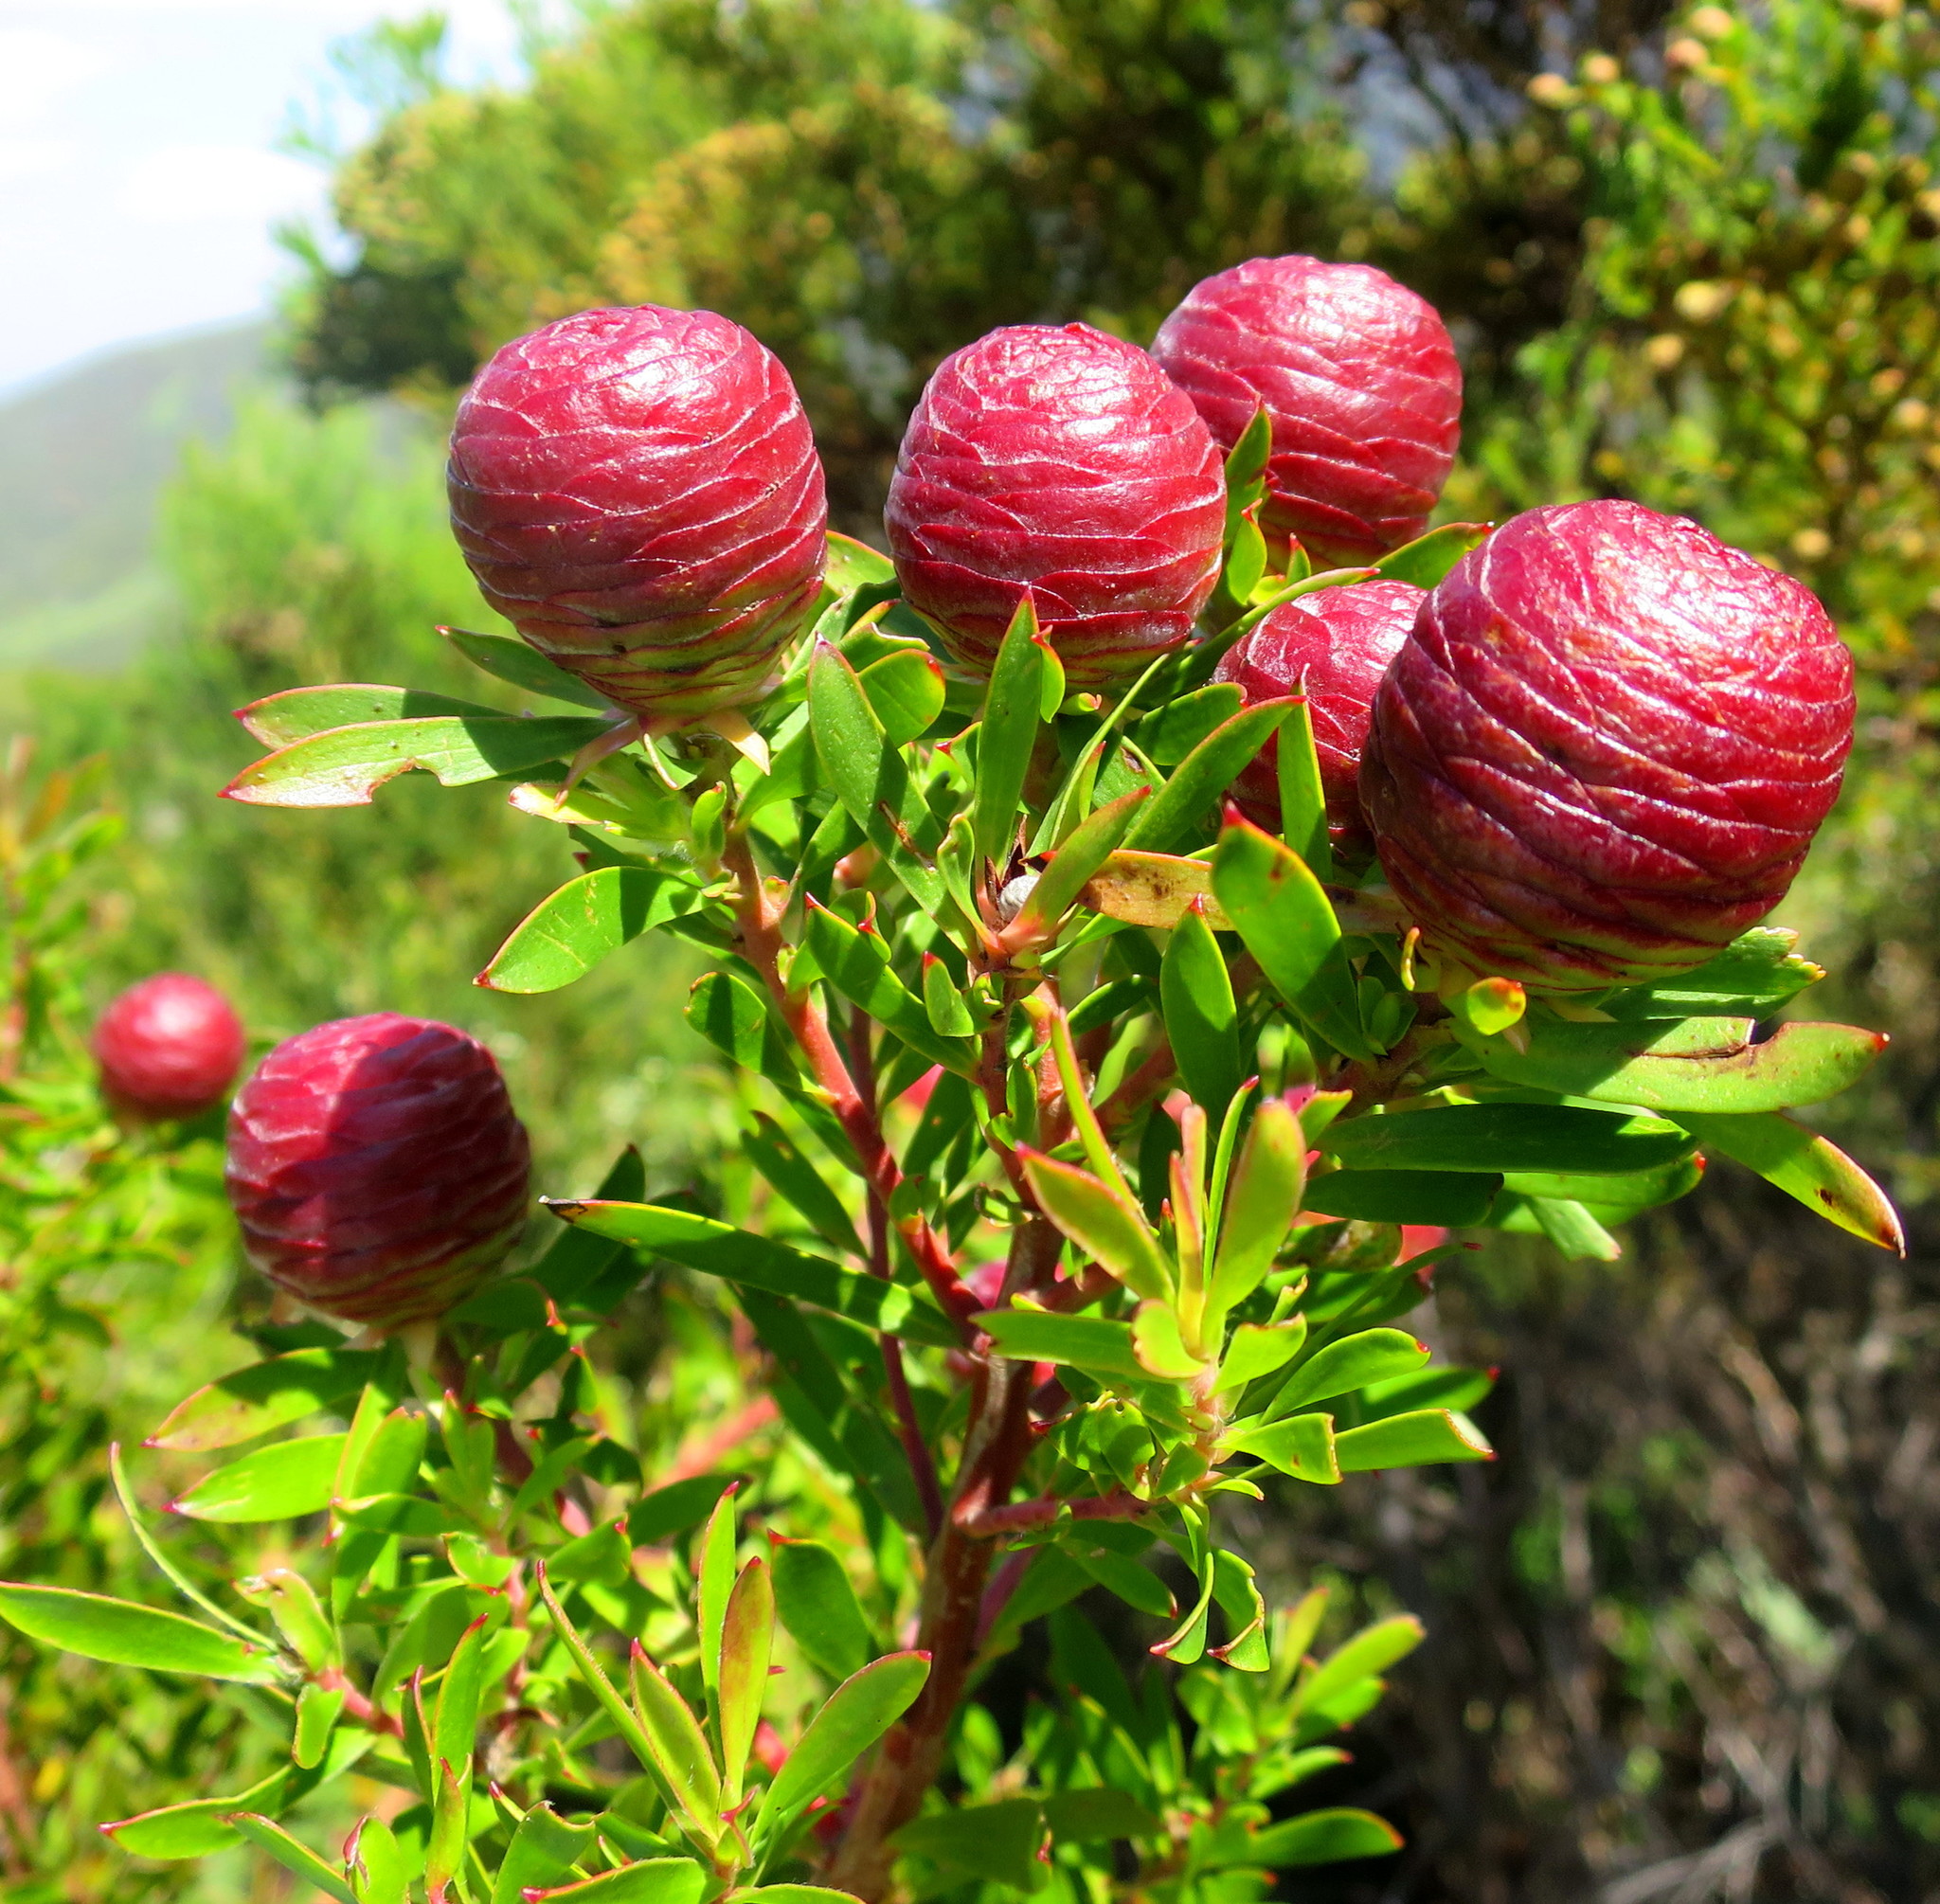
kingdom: Plantae
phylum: Tracheophyta
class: Magnoliopsida
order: Proteales
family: Proteaceae
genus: Leucadendron
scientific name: Leucadendron conicum
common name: Garden route conebush
